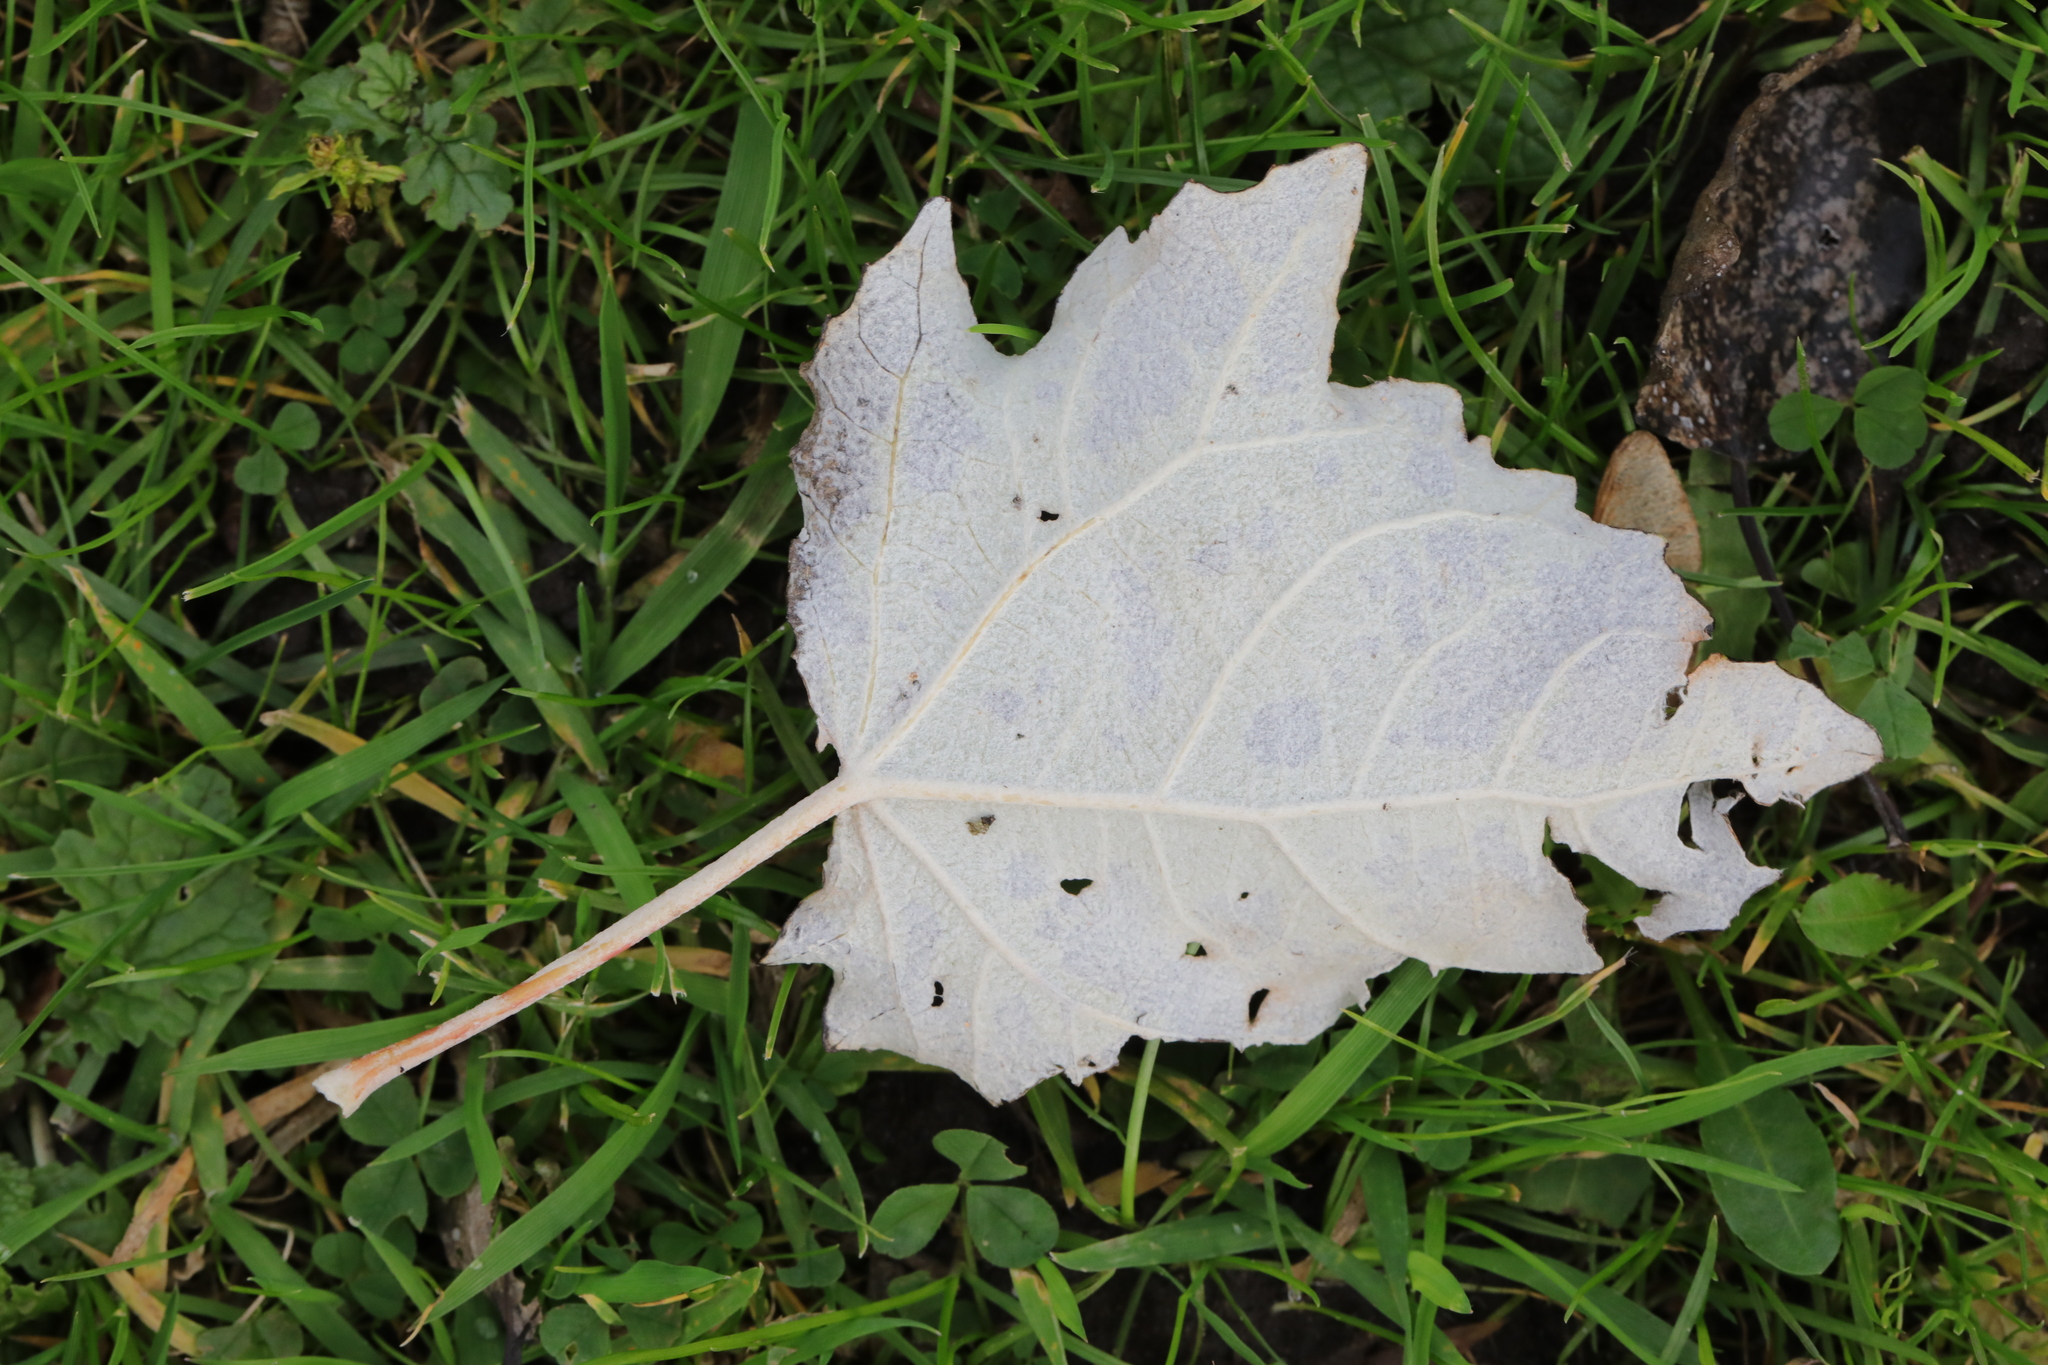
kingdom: Plantae
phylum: Tracheophyta
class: Magnoliopsida
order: Malpighiales
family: Salicaceae
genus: Populus
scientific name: Populus alba
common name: White poplar
